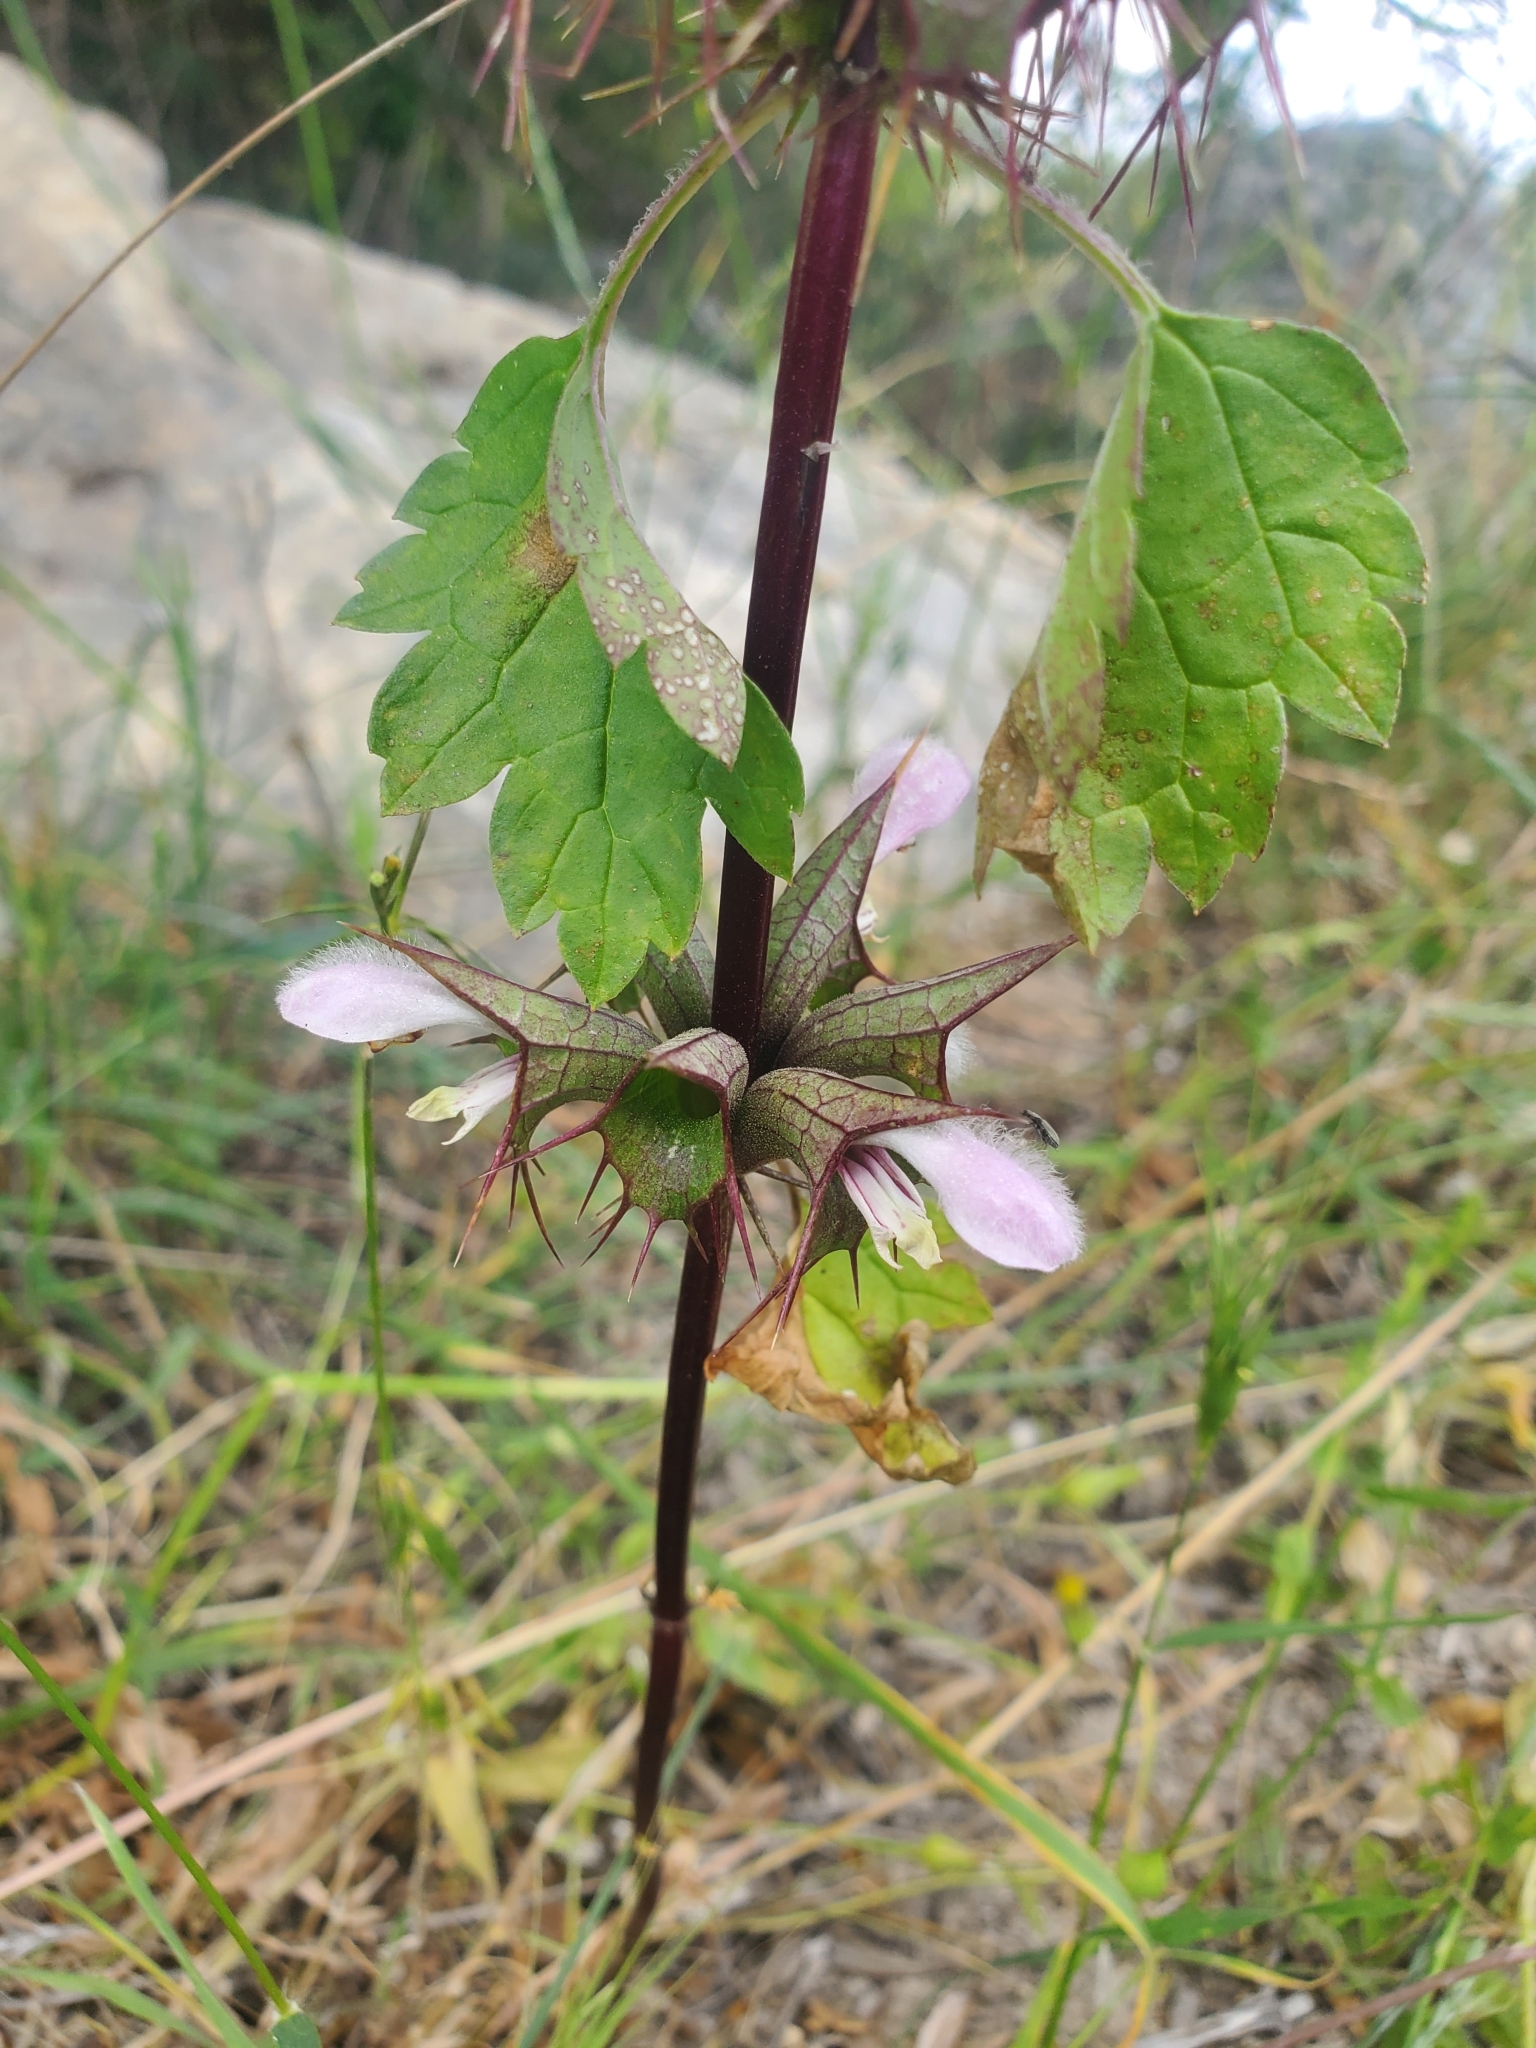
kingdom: Plantae
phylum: Tracheophyta
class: Magnoliopsida
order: Lamiales
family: Lamiaceae
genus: Moluccella
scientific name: Moluccella spinosa
